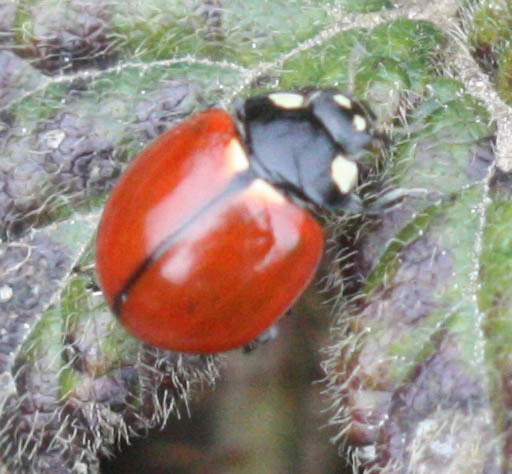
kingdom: Animalia
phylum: Arthropoda
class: Insecta
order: Coleoptera
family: Coccinellidae
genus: Coccinella
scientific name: Coccinella californica
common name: Lady beetle
